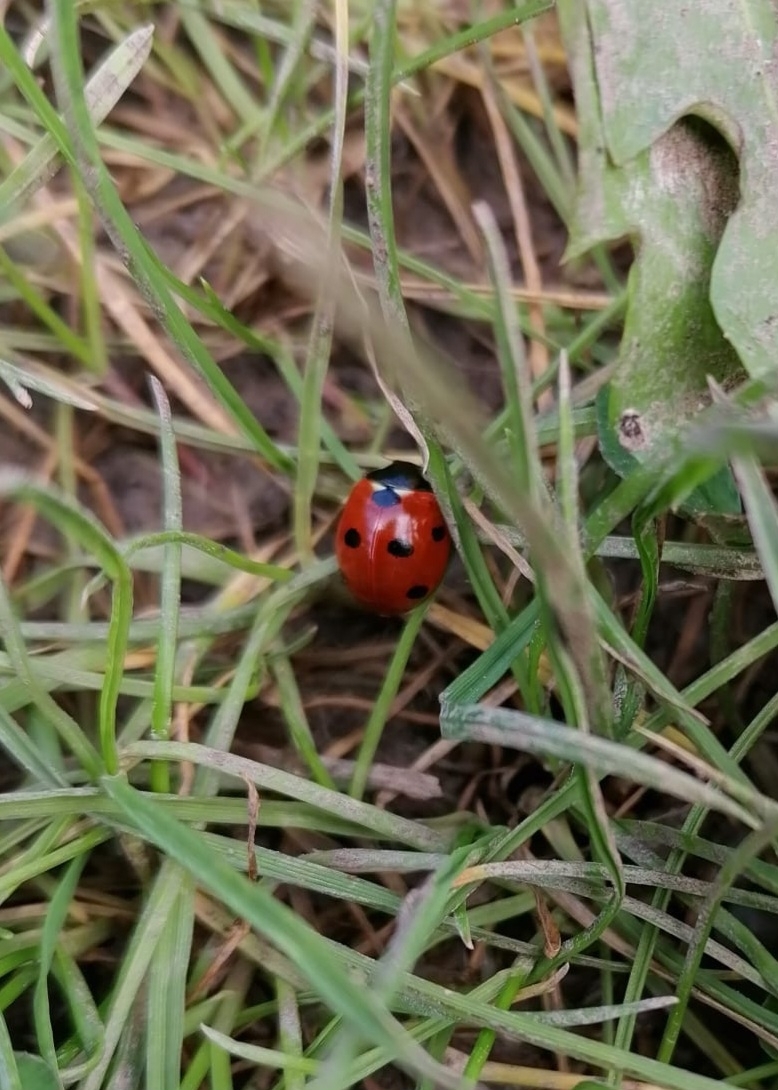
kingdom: Animalia
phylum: Arthropoda
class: Insecta
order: Coleoptera
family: Coccinellidae
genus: Coccinella
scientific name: Coccinella septempunctata
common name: Sevenspotted lady beetle
